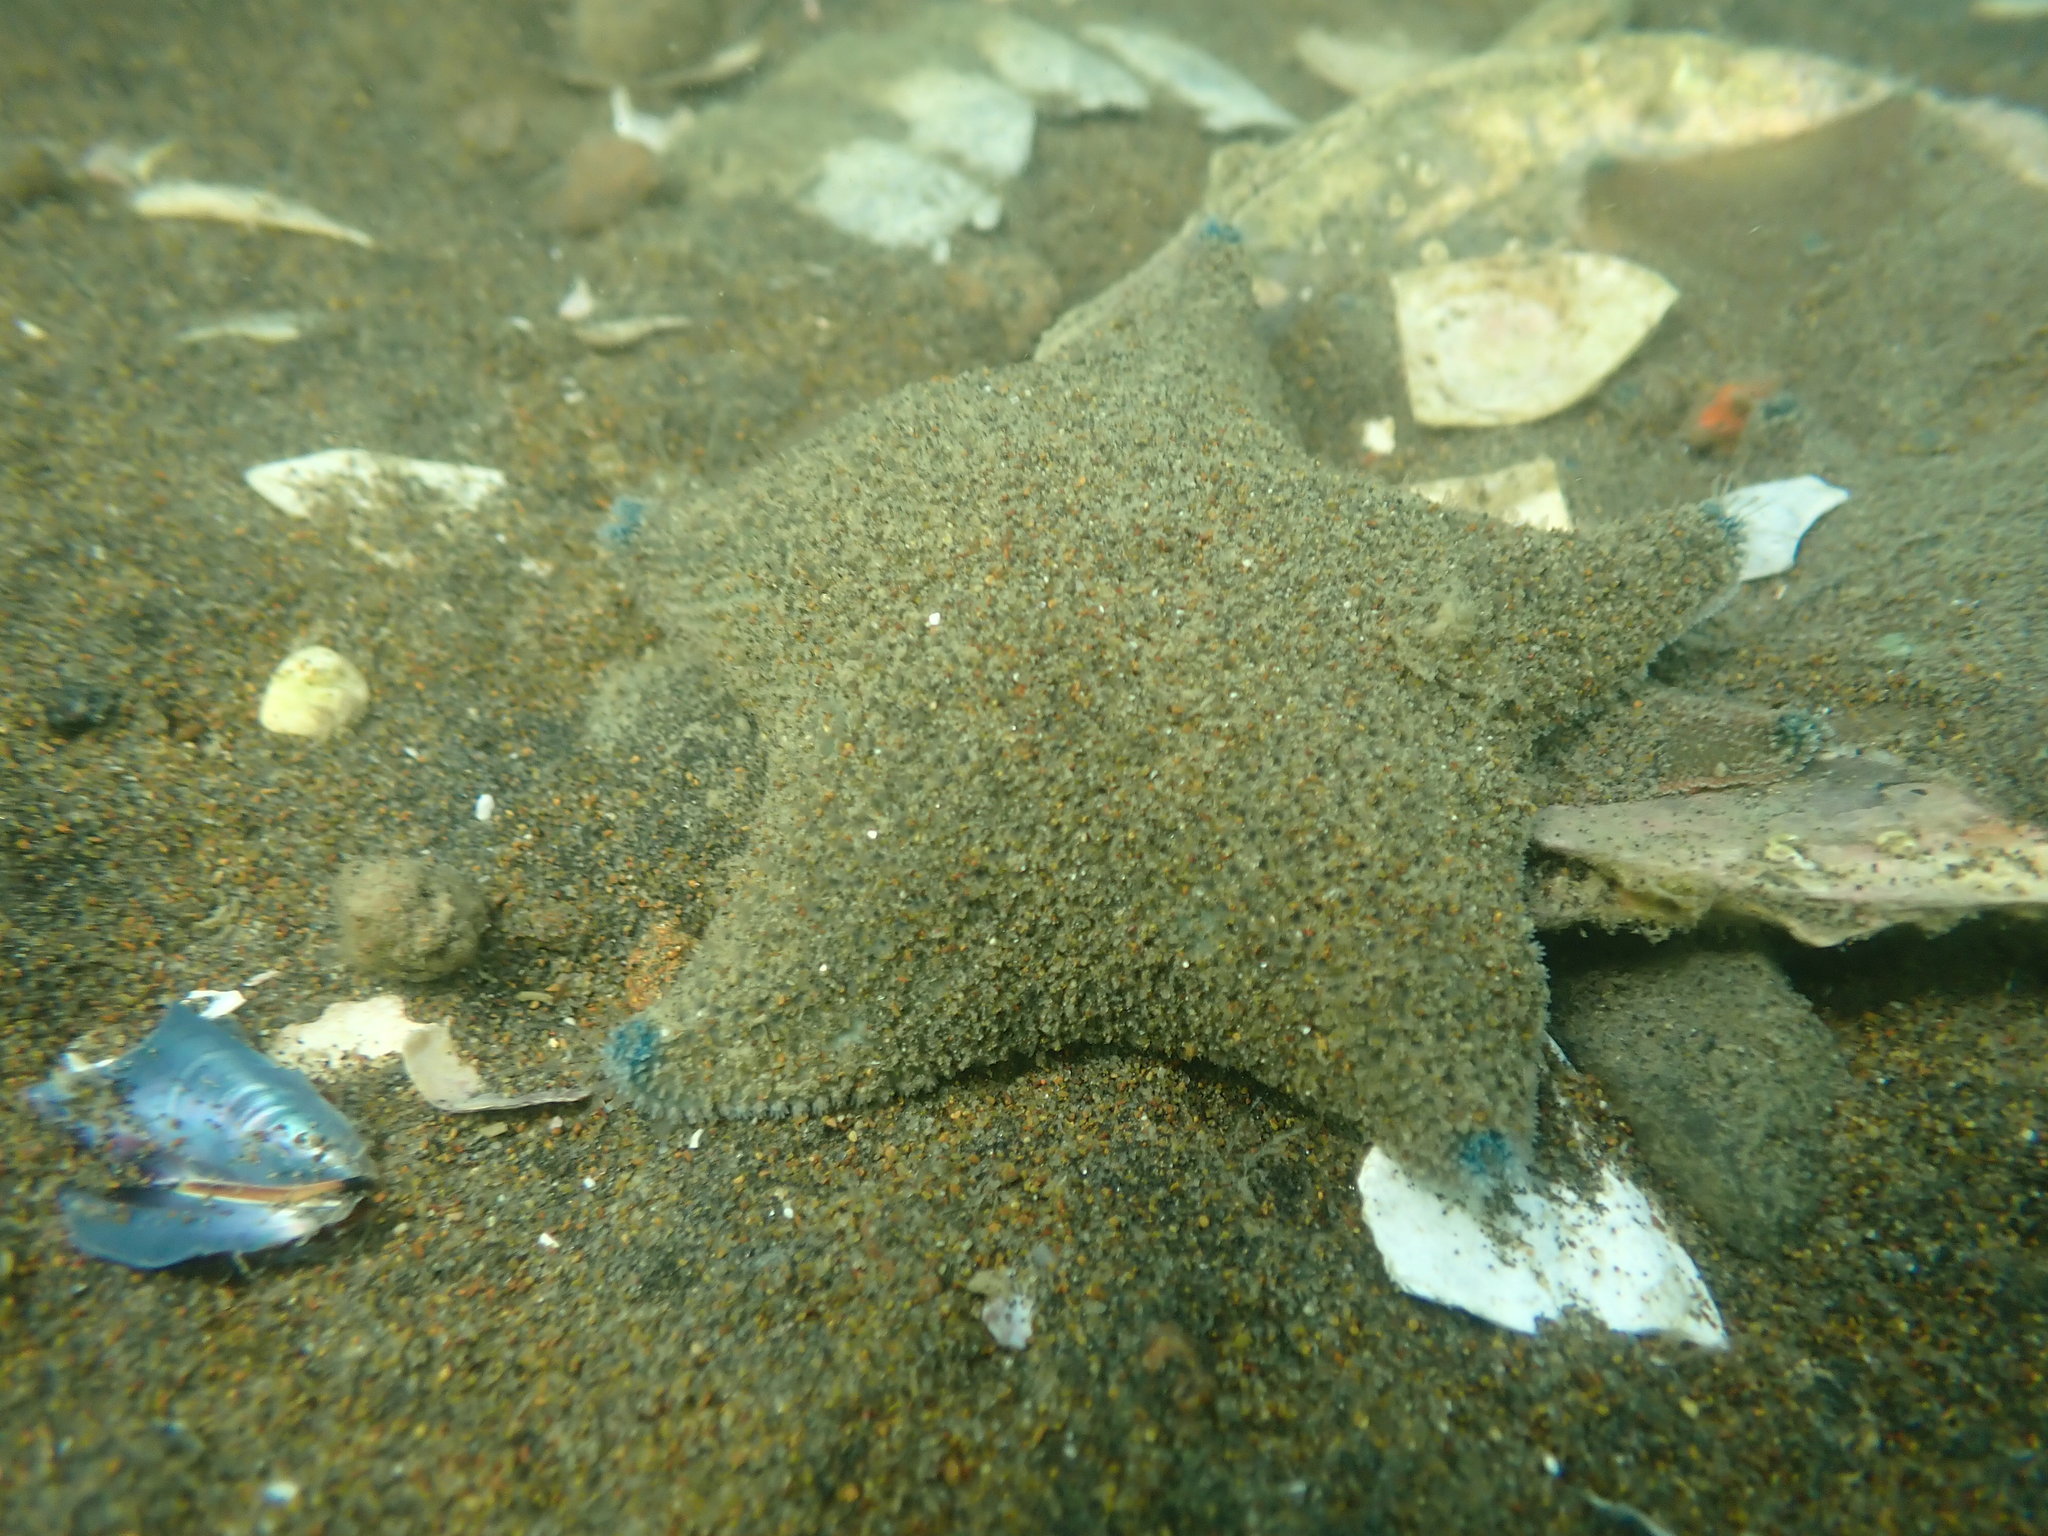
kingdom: Animalia
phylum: Echinodermata
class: Asteroidea
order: Valvatida
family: Asterinidae
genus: Patiriella
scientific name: Patiriella regularis
